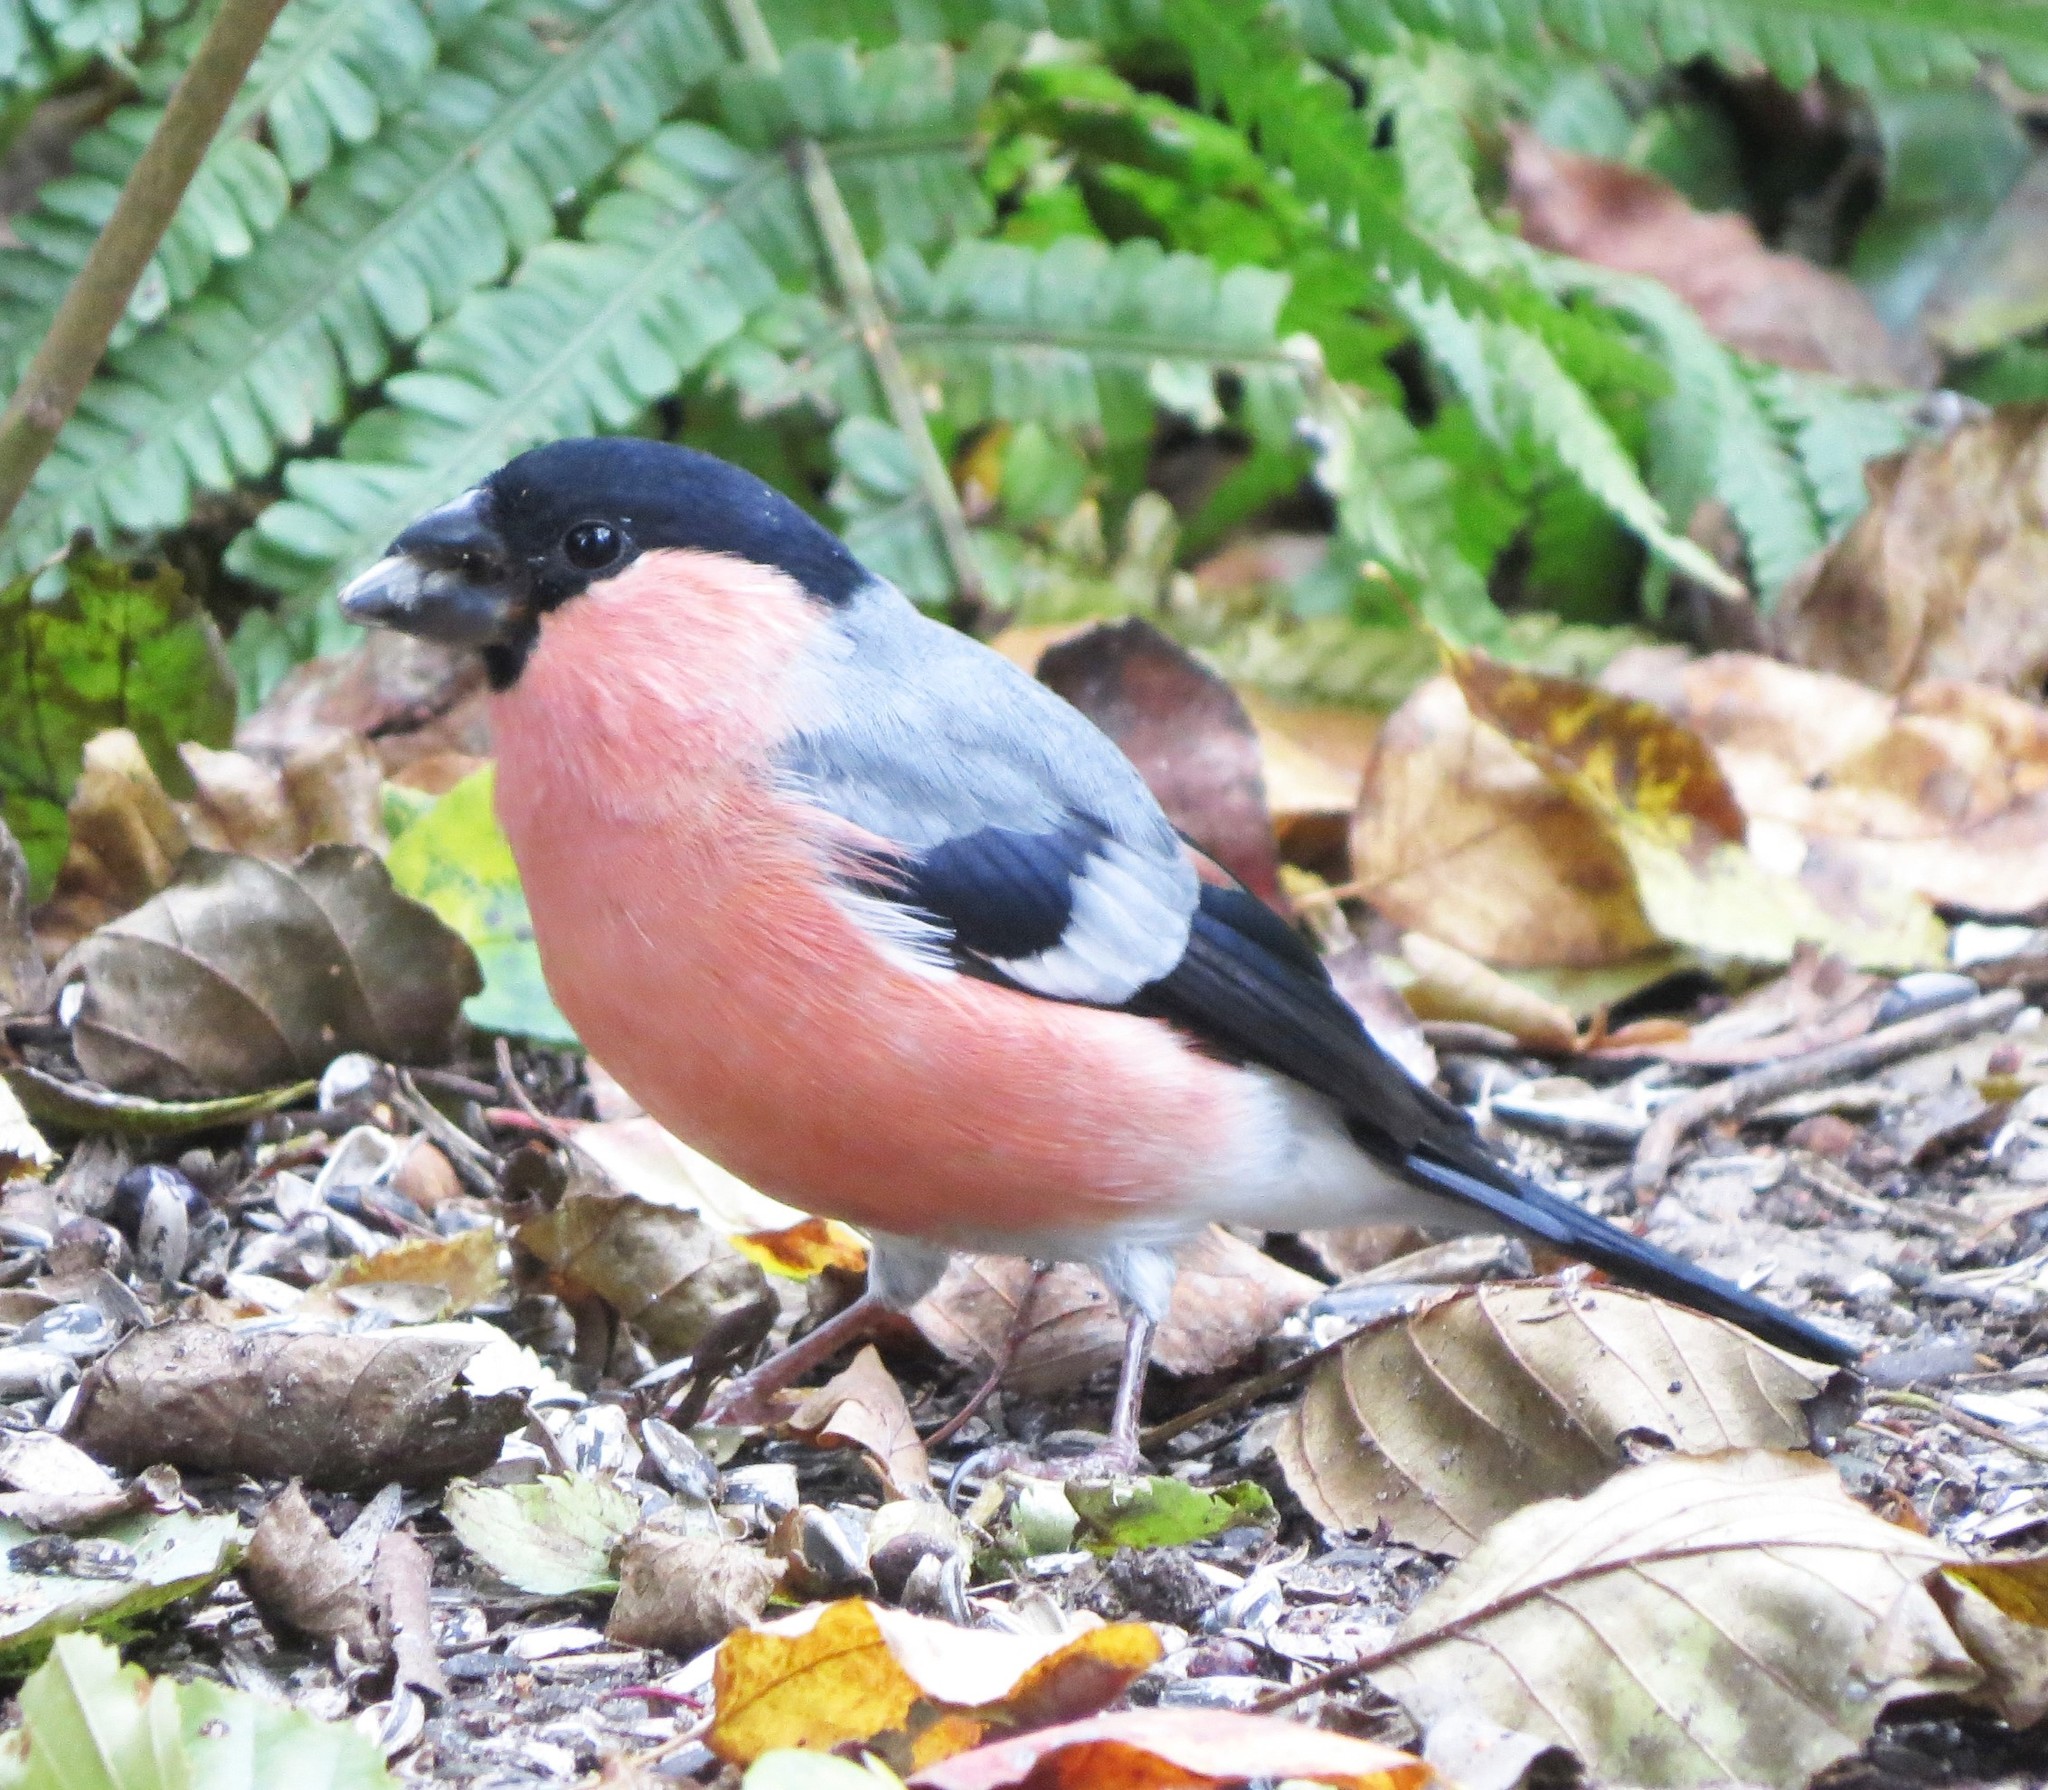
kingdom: Animalia
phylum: Chordata
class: Aves
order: Passeriformes
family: Fringillidae
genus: Pyrrhula
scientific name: Pyrrhula pyrrhula
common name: Eurasian bullfinch
